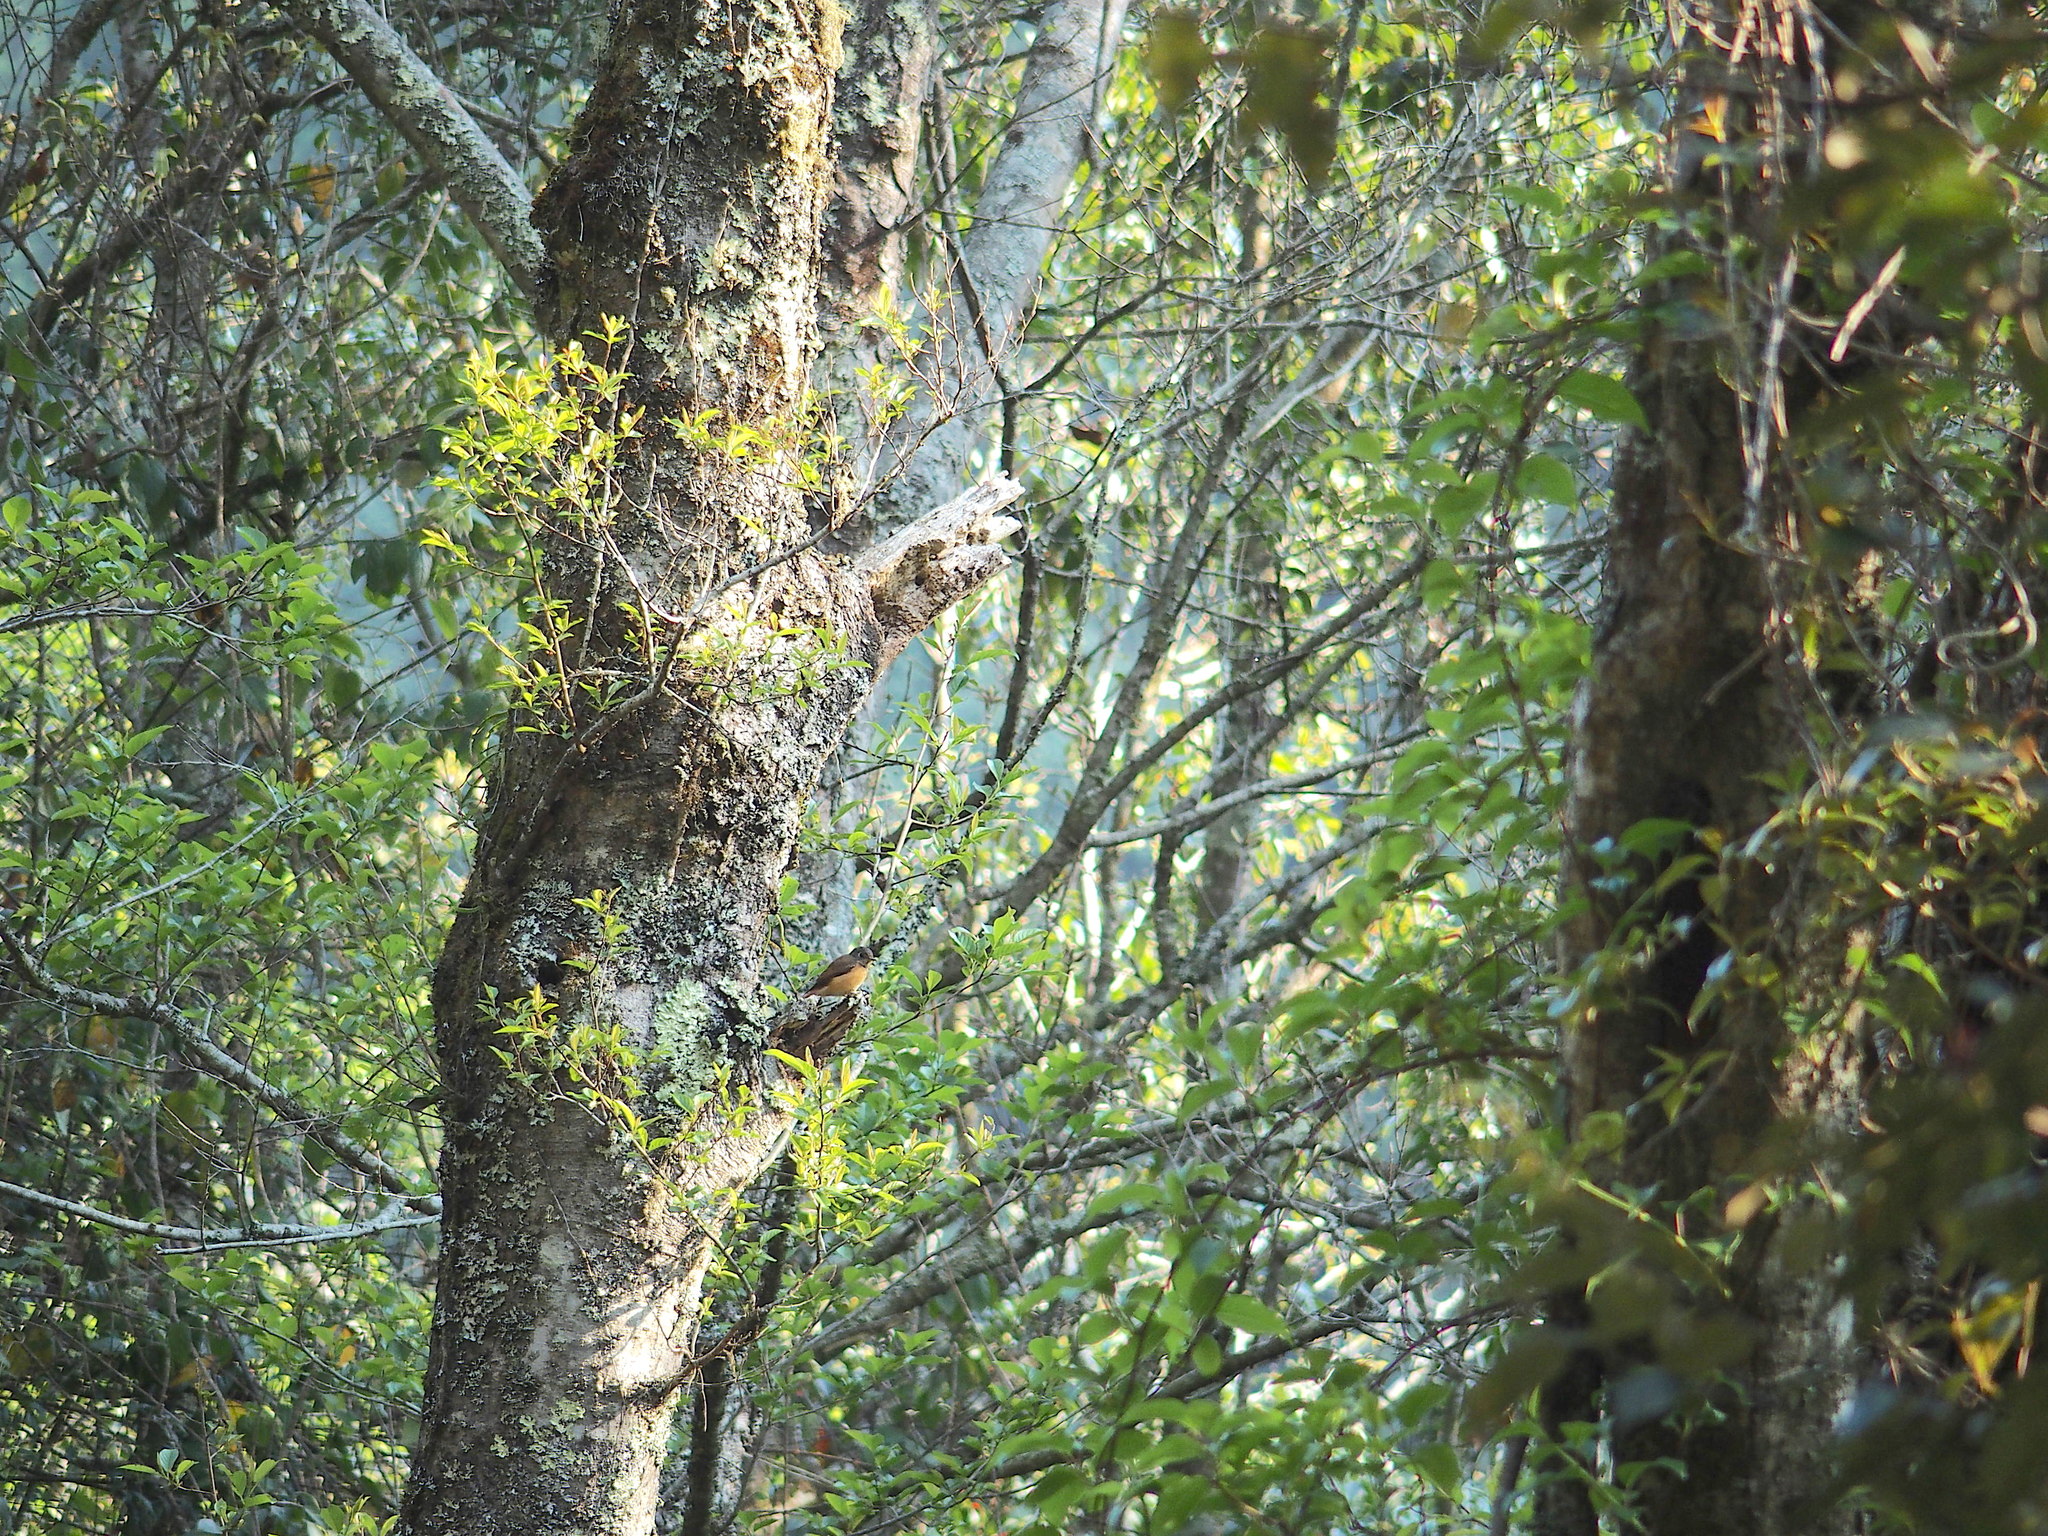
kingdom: Animalia
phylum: Chordata
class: Aves
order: Passeriformes
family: Muscicapidae
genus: Muscicapa
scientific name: Muscicapa ferruginea
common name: Ferruginous flycatcher
